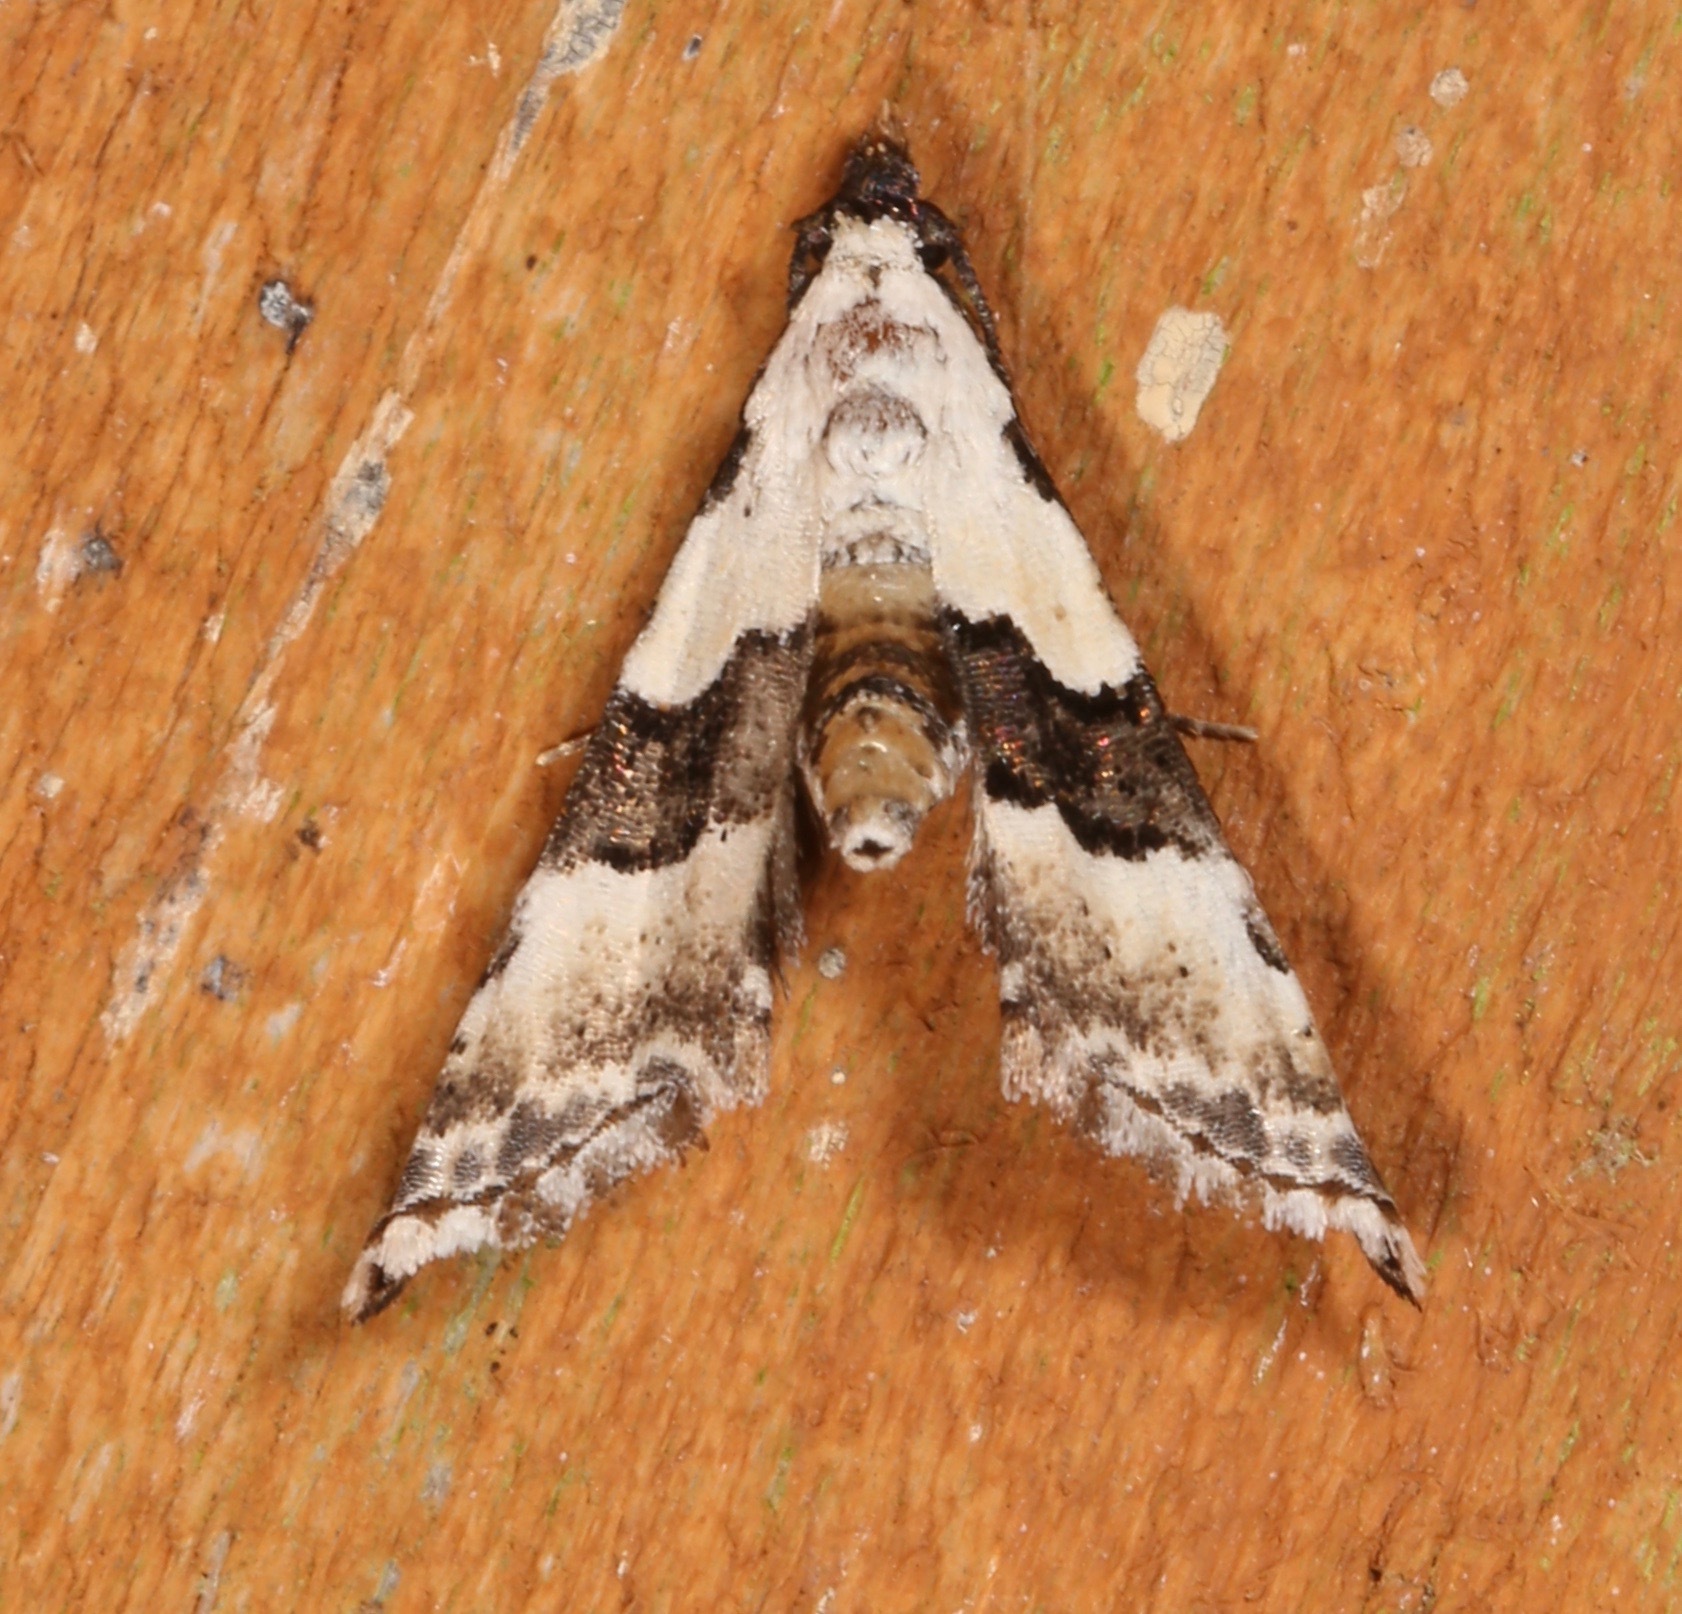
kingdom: Animalia
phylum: Arthropoda
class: Insecta
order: Lepidoptera
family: Noctuidae
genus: Nigetia
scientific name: Nigetia formosalis
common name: Thin-winged owlet
